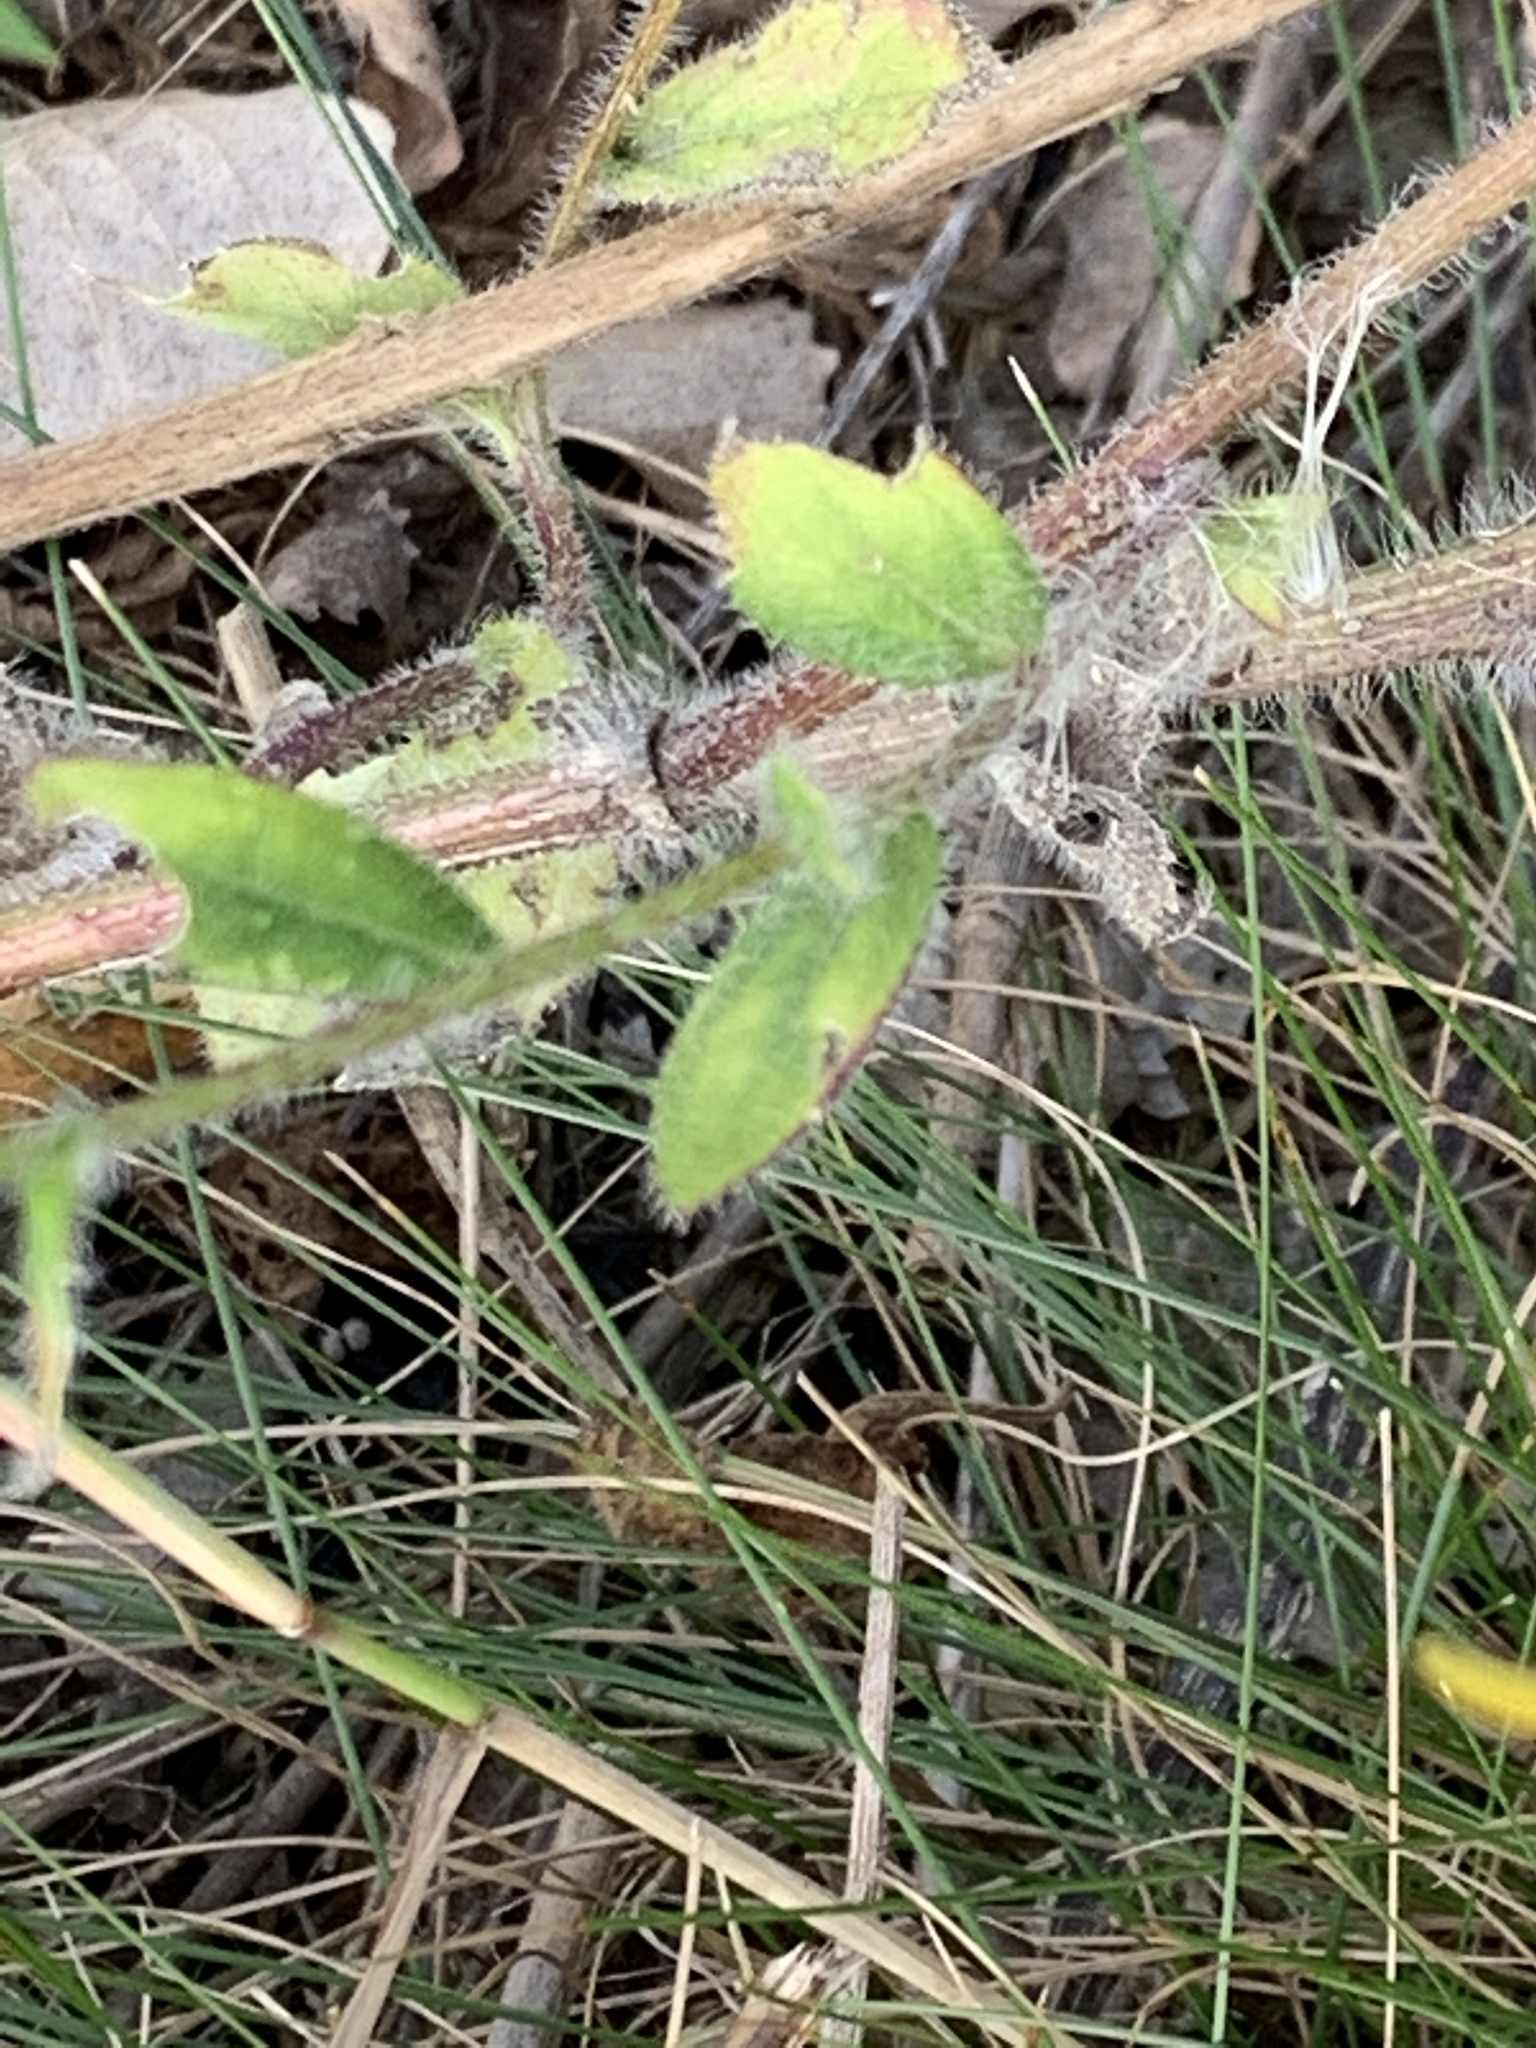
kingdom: Plantae
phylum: Tracheophyta
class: Magnoliopsida
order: Asterales
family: Asteraceae
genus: Rudbeckia
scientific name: Rudbeckia hirta
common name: Black-eyed-susan
